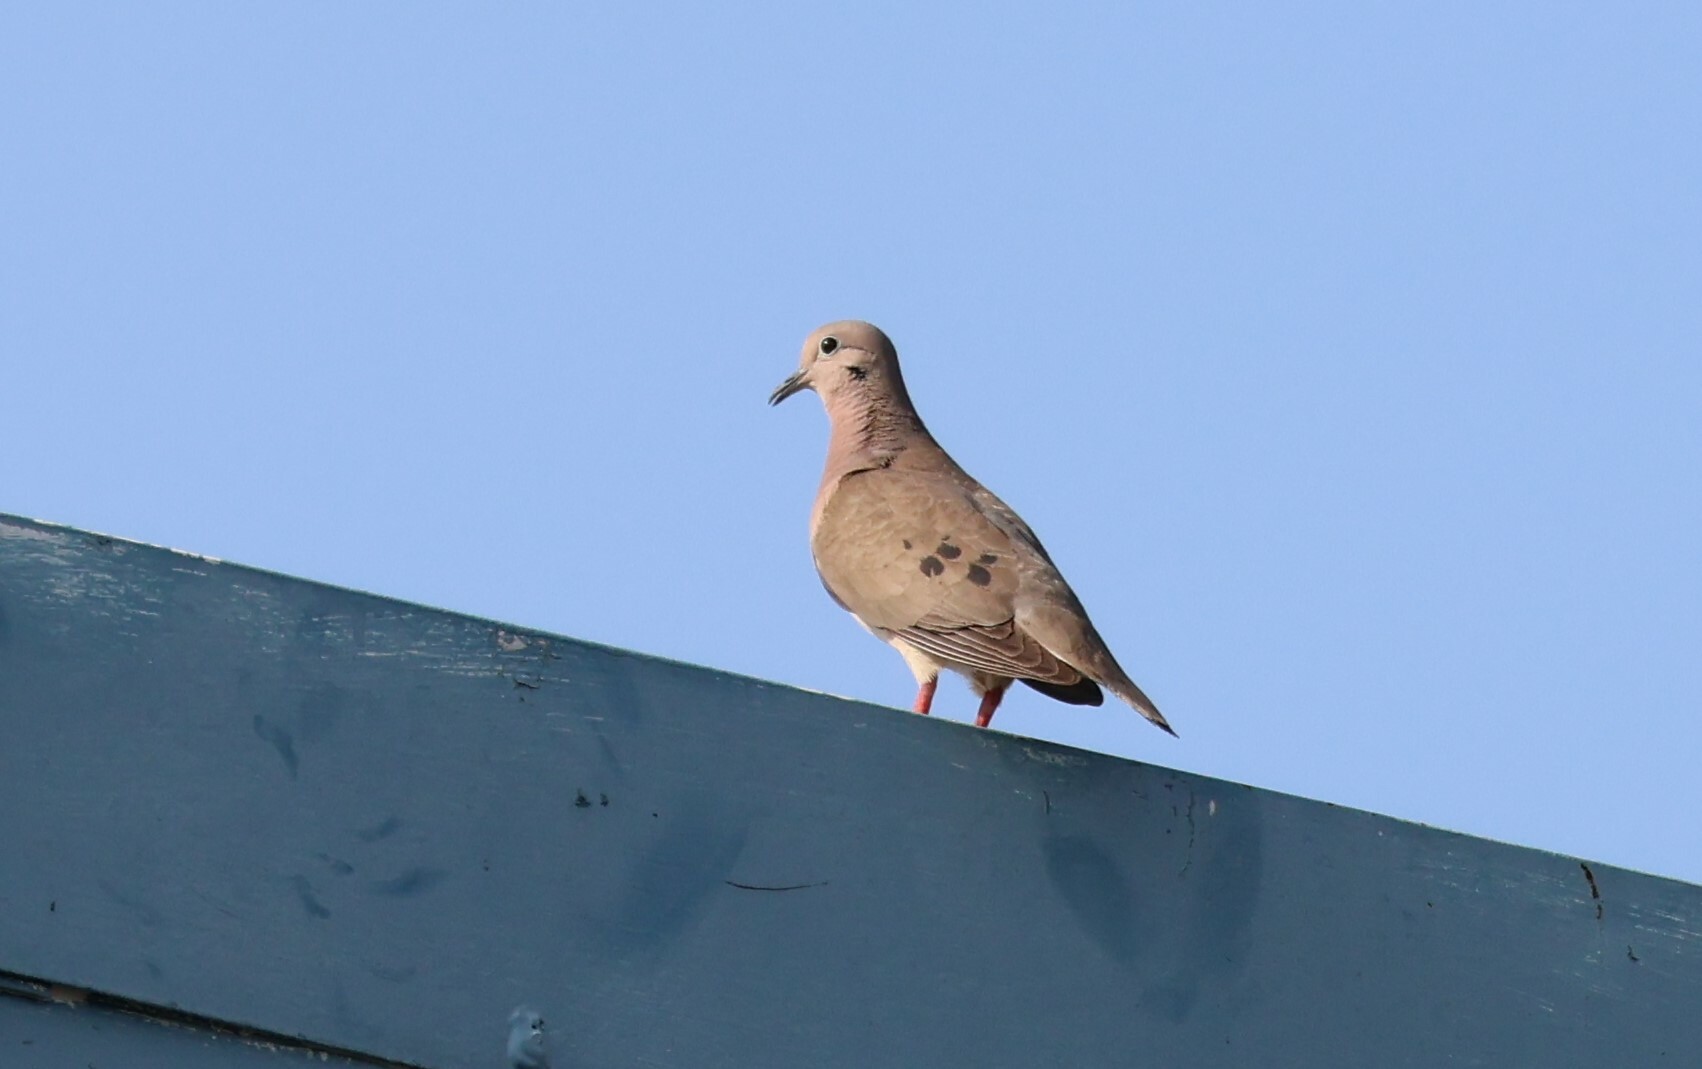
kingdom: Animalia
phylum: Chordata
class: Aves
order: Columbiformes
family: Columbidae
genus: Zenaida
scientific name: Zenaida auriculata
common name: Eared dove
